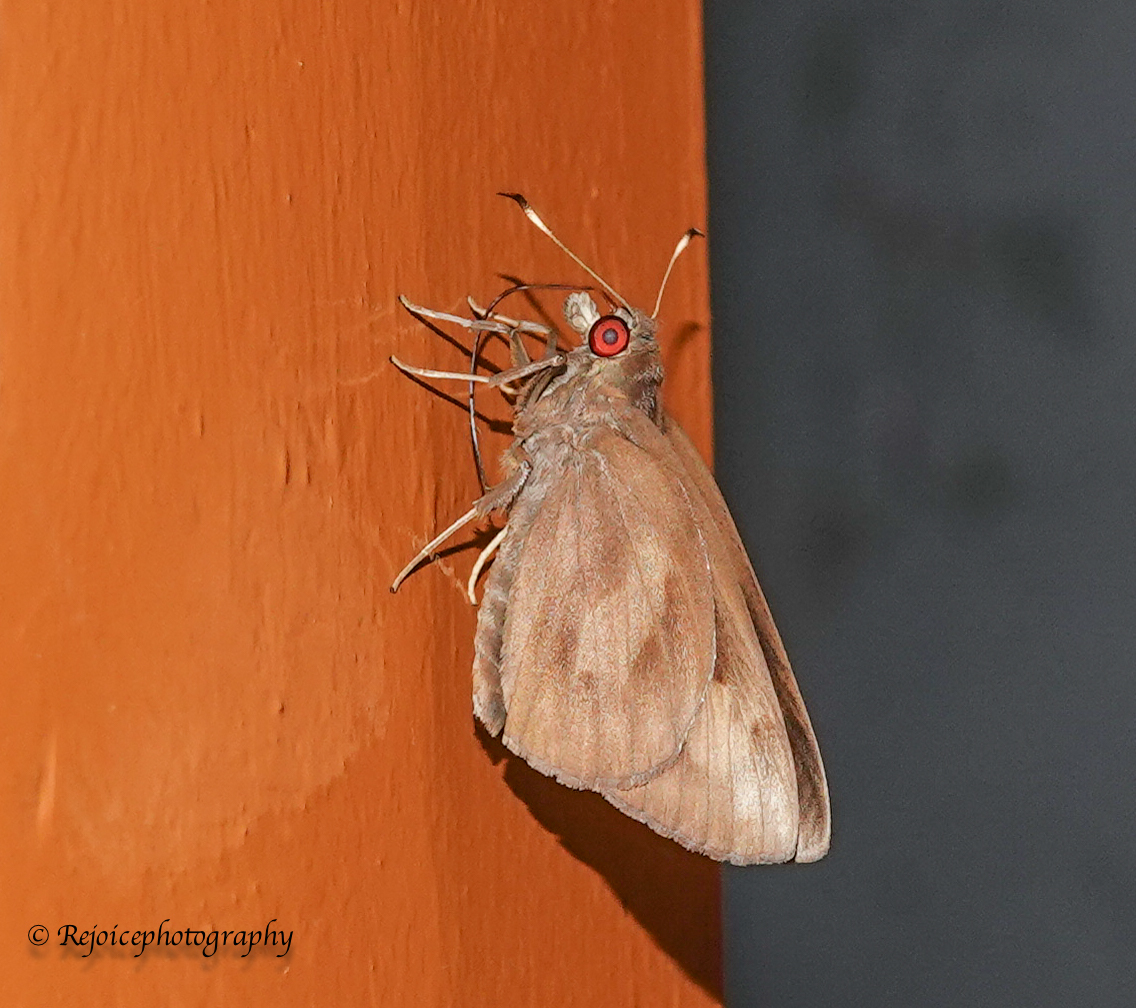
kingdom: Animalia
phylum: Arthropoda
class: Insecta
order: Lepidoptera
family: Hesperiidae
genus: Erionota
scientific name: Erionota torus
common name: Rounded palm-redeye
